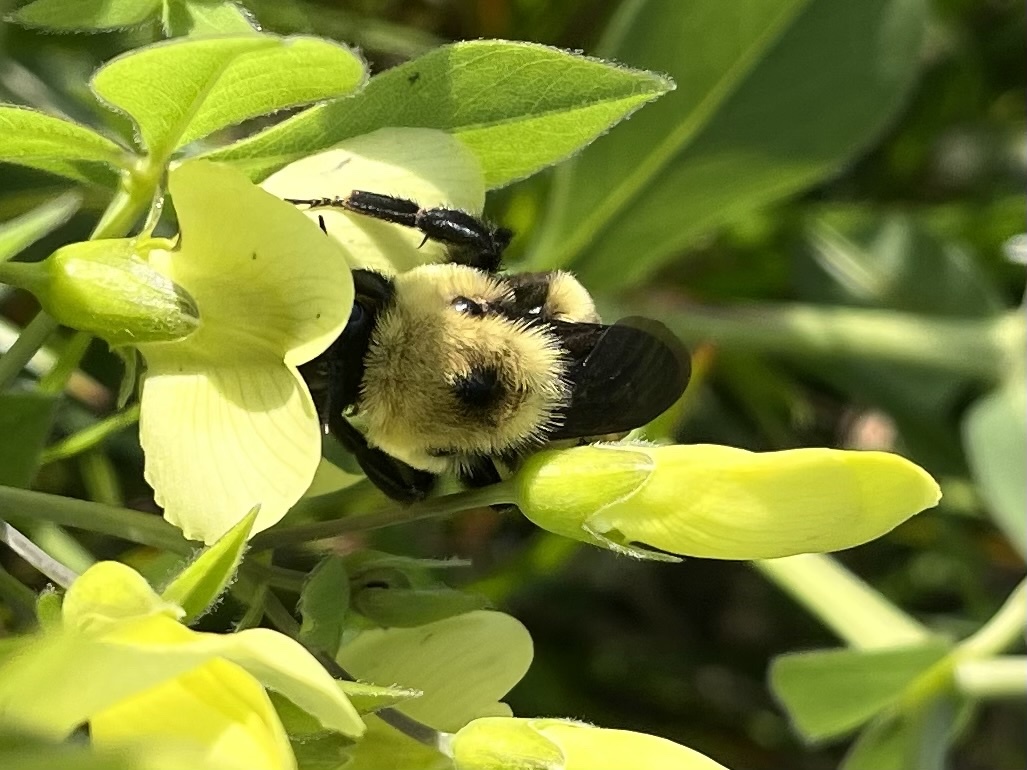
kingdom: Animalia
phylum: Arthropoda
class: Insecta
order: Hymenoptera
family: Apidae
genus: Bombus
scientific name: Bombus griseocollis
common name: Brown-belted bumble bee
